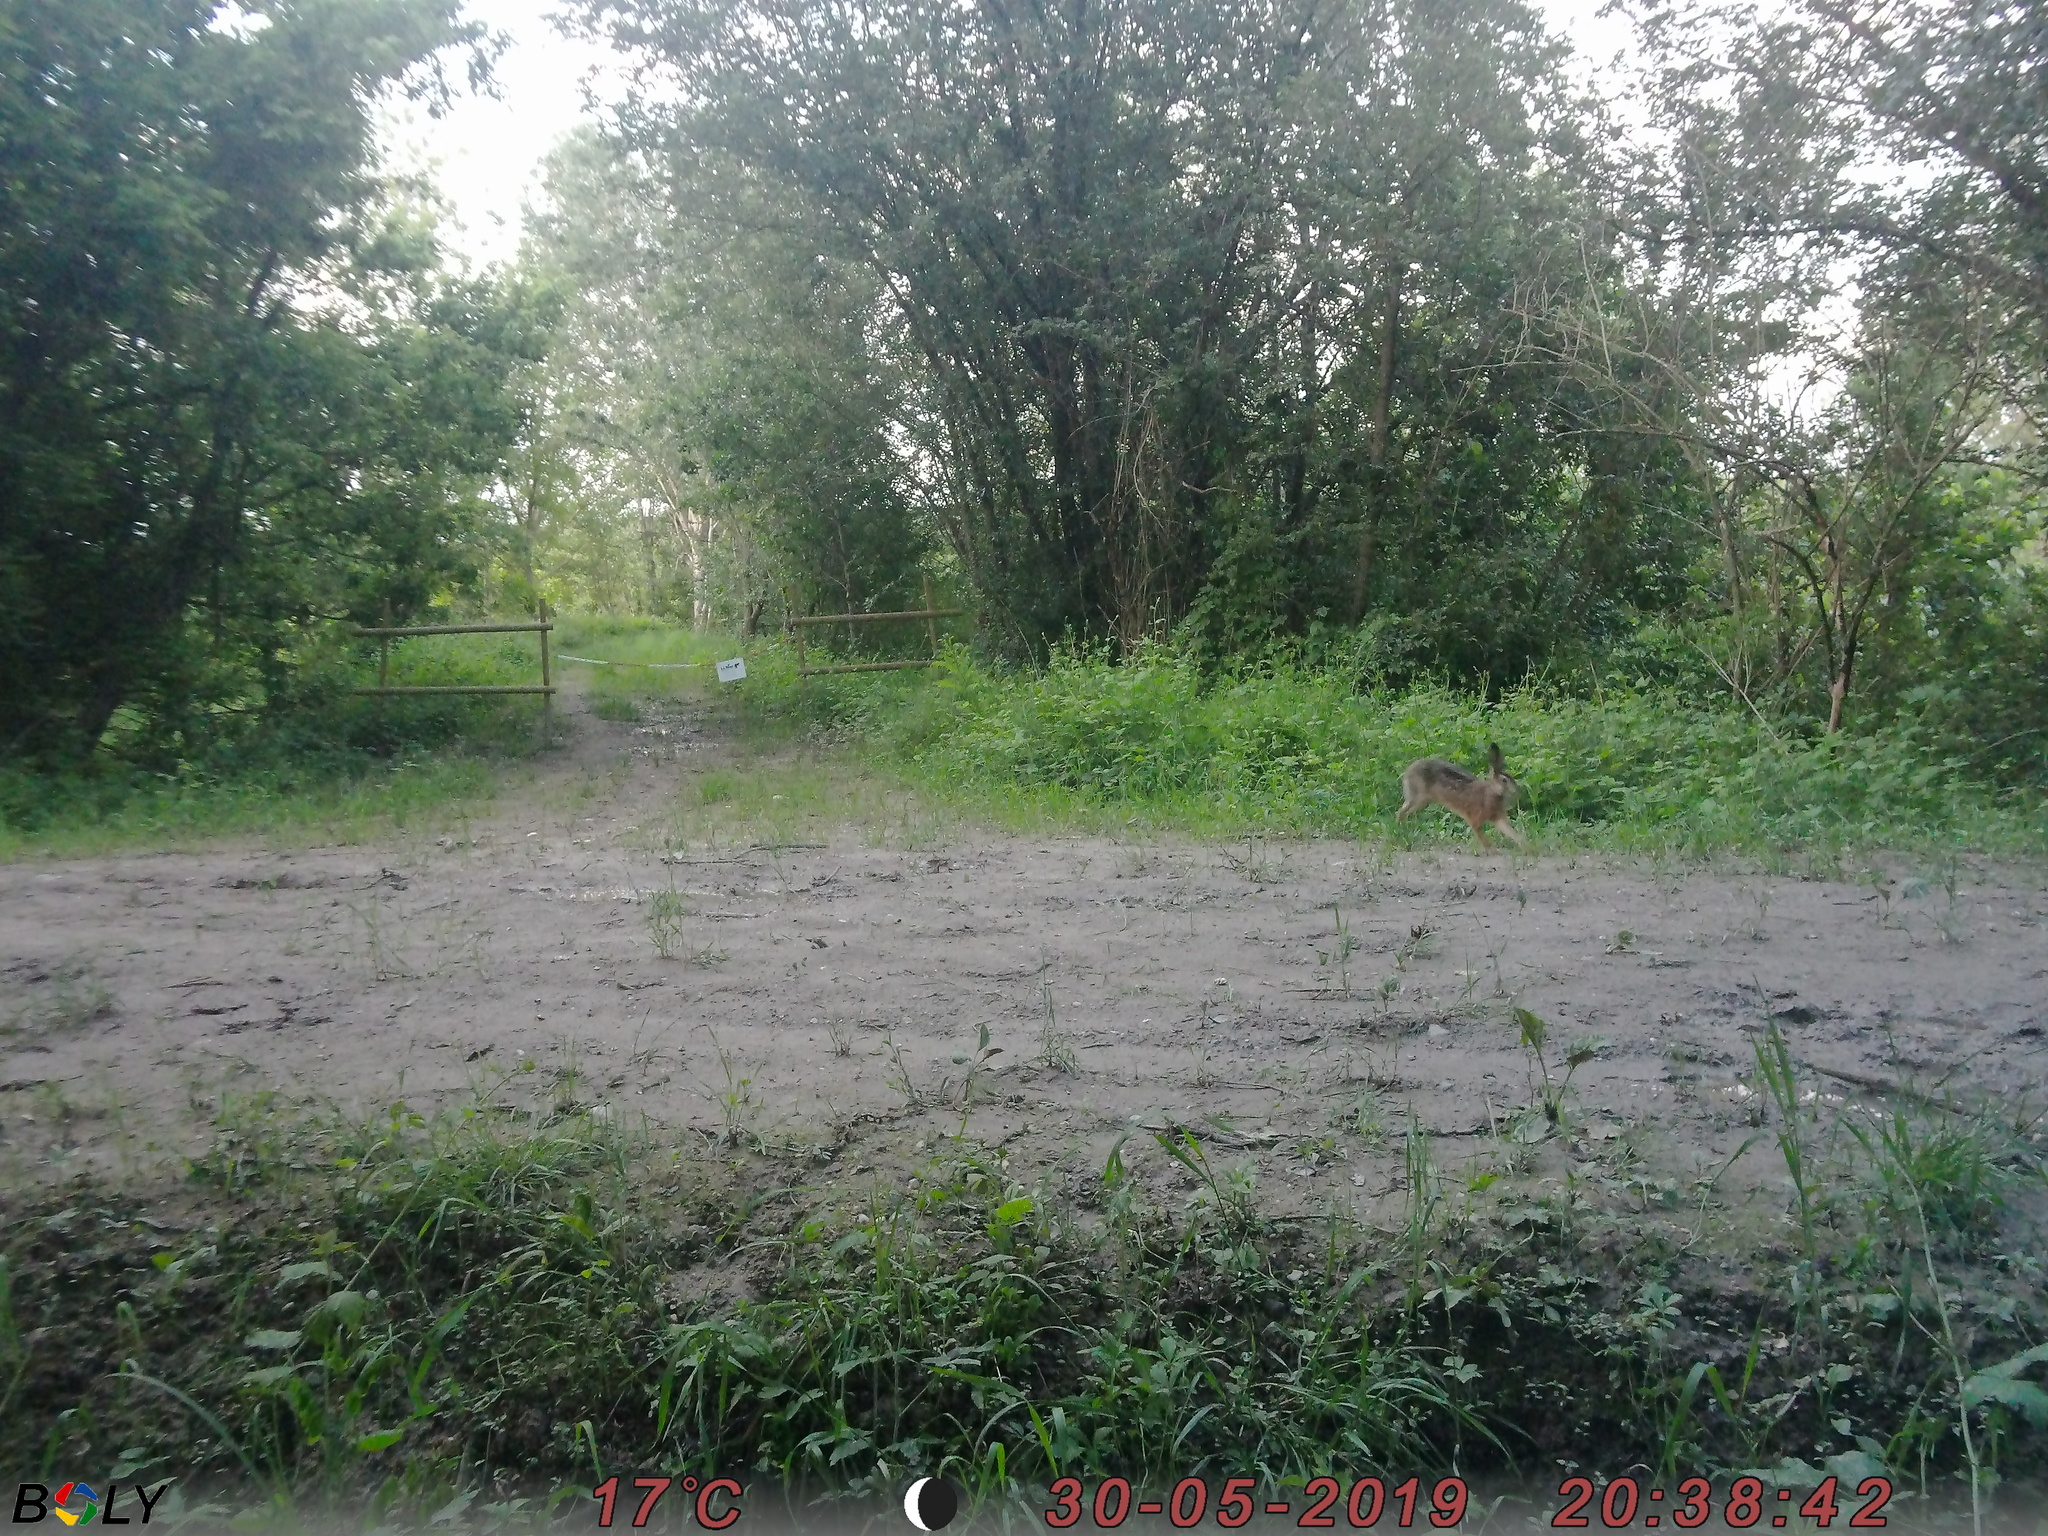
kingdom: Animalia
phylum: Chordata
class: Mammalia
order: Lagomorpha
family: Leporidae
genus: Lepus
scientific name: Lepus europaeus
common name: European hare
